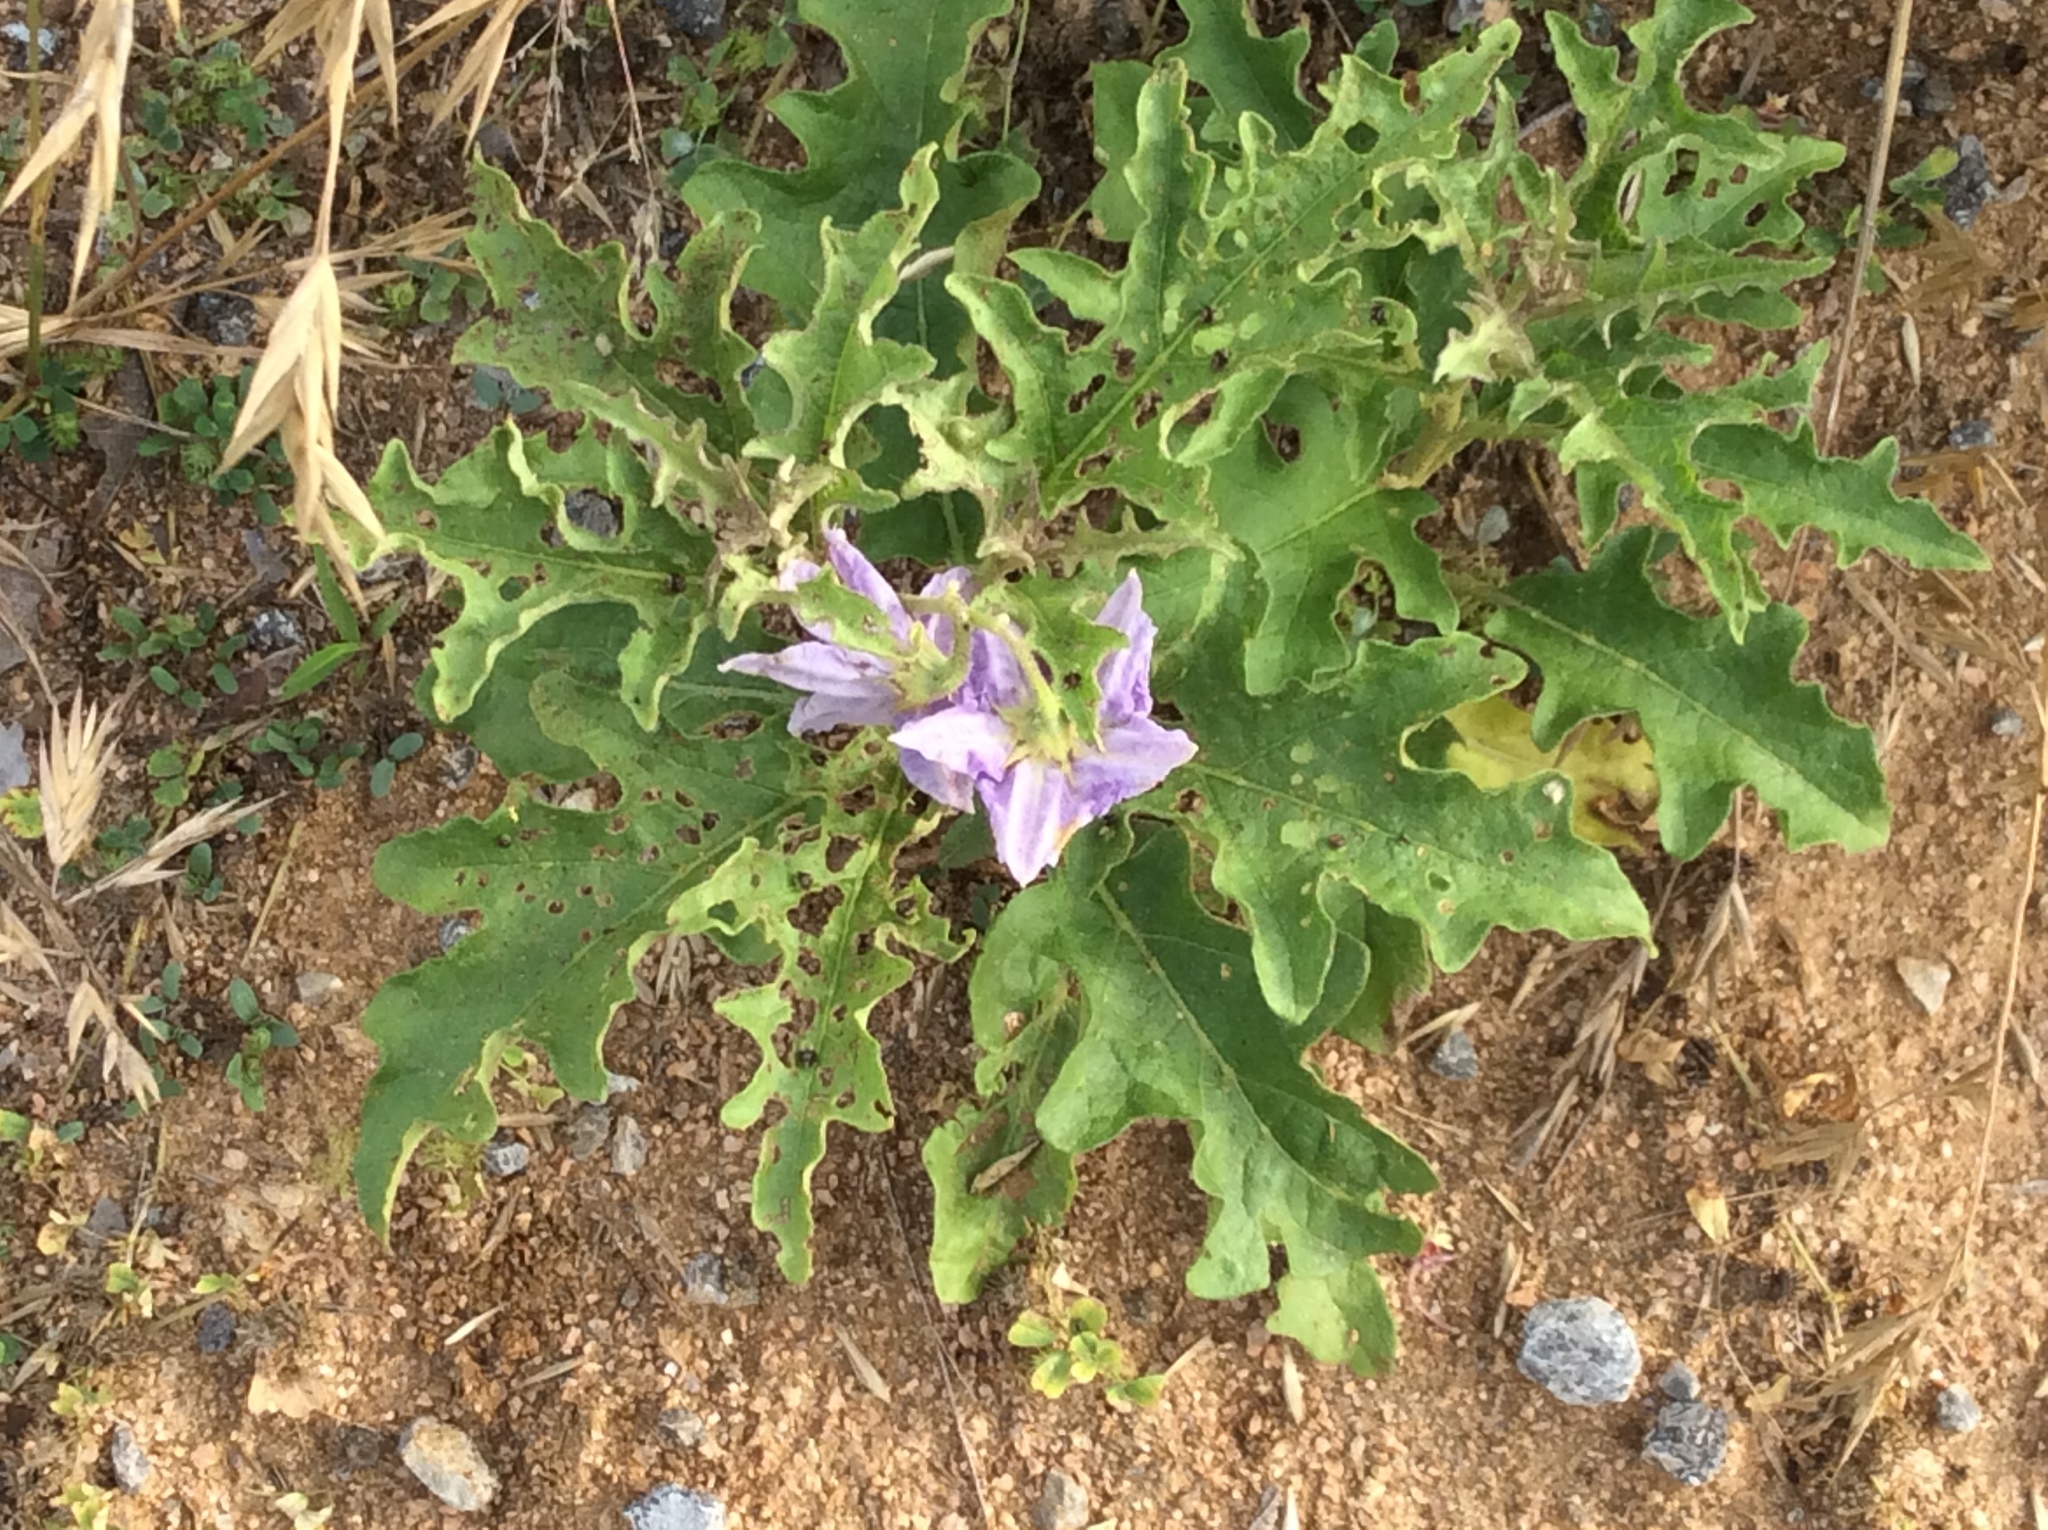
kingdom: Plantae
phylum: Tracheophyta
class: Magnoliopsida
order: Solanales
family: Solanaceae
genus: Solanum
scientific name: Solanum dimidiatum
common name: Carolina horse-nettle
